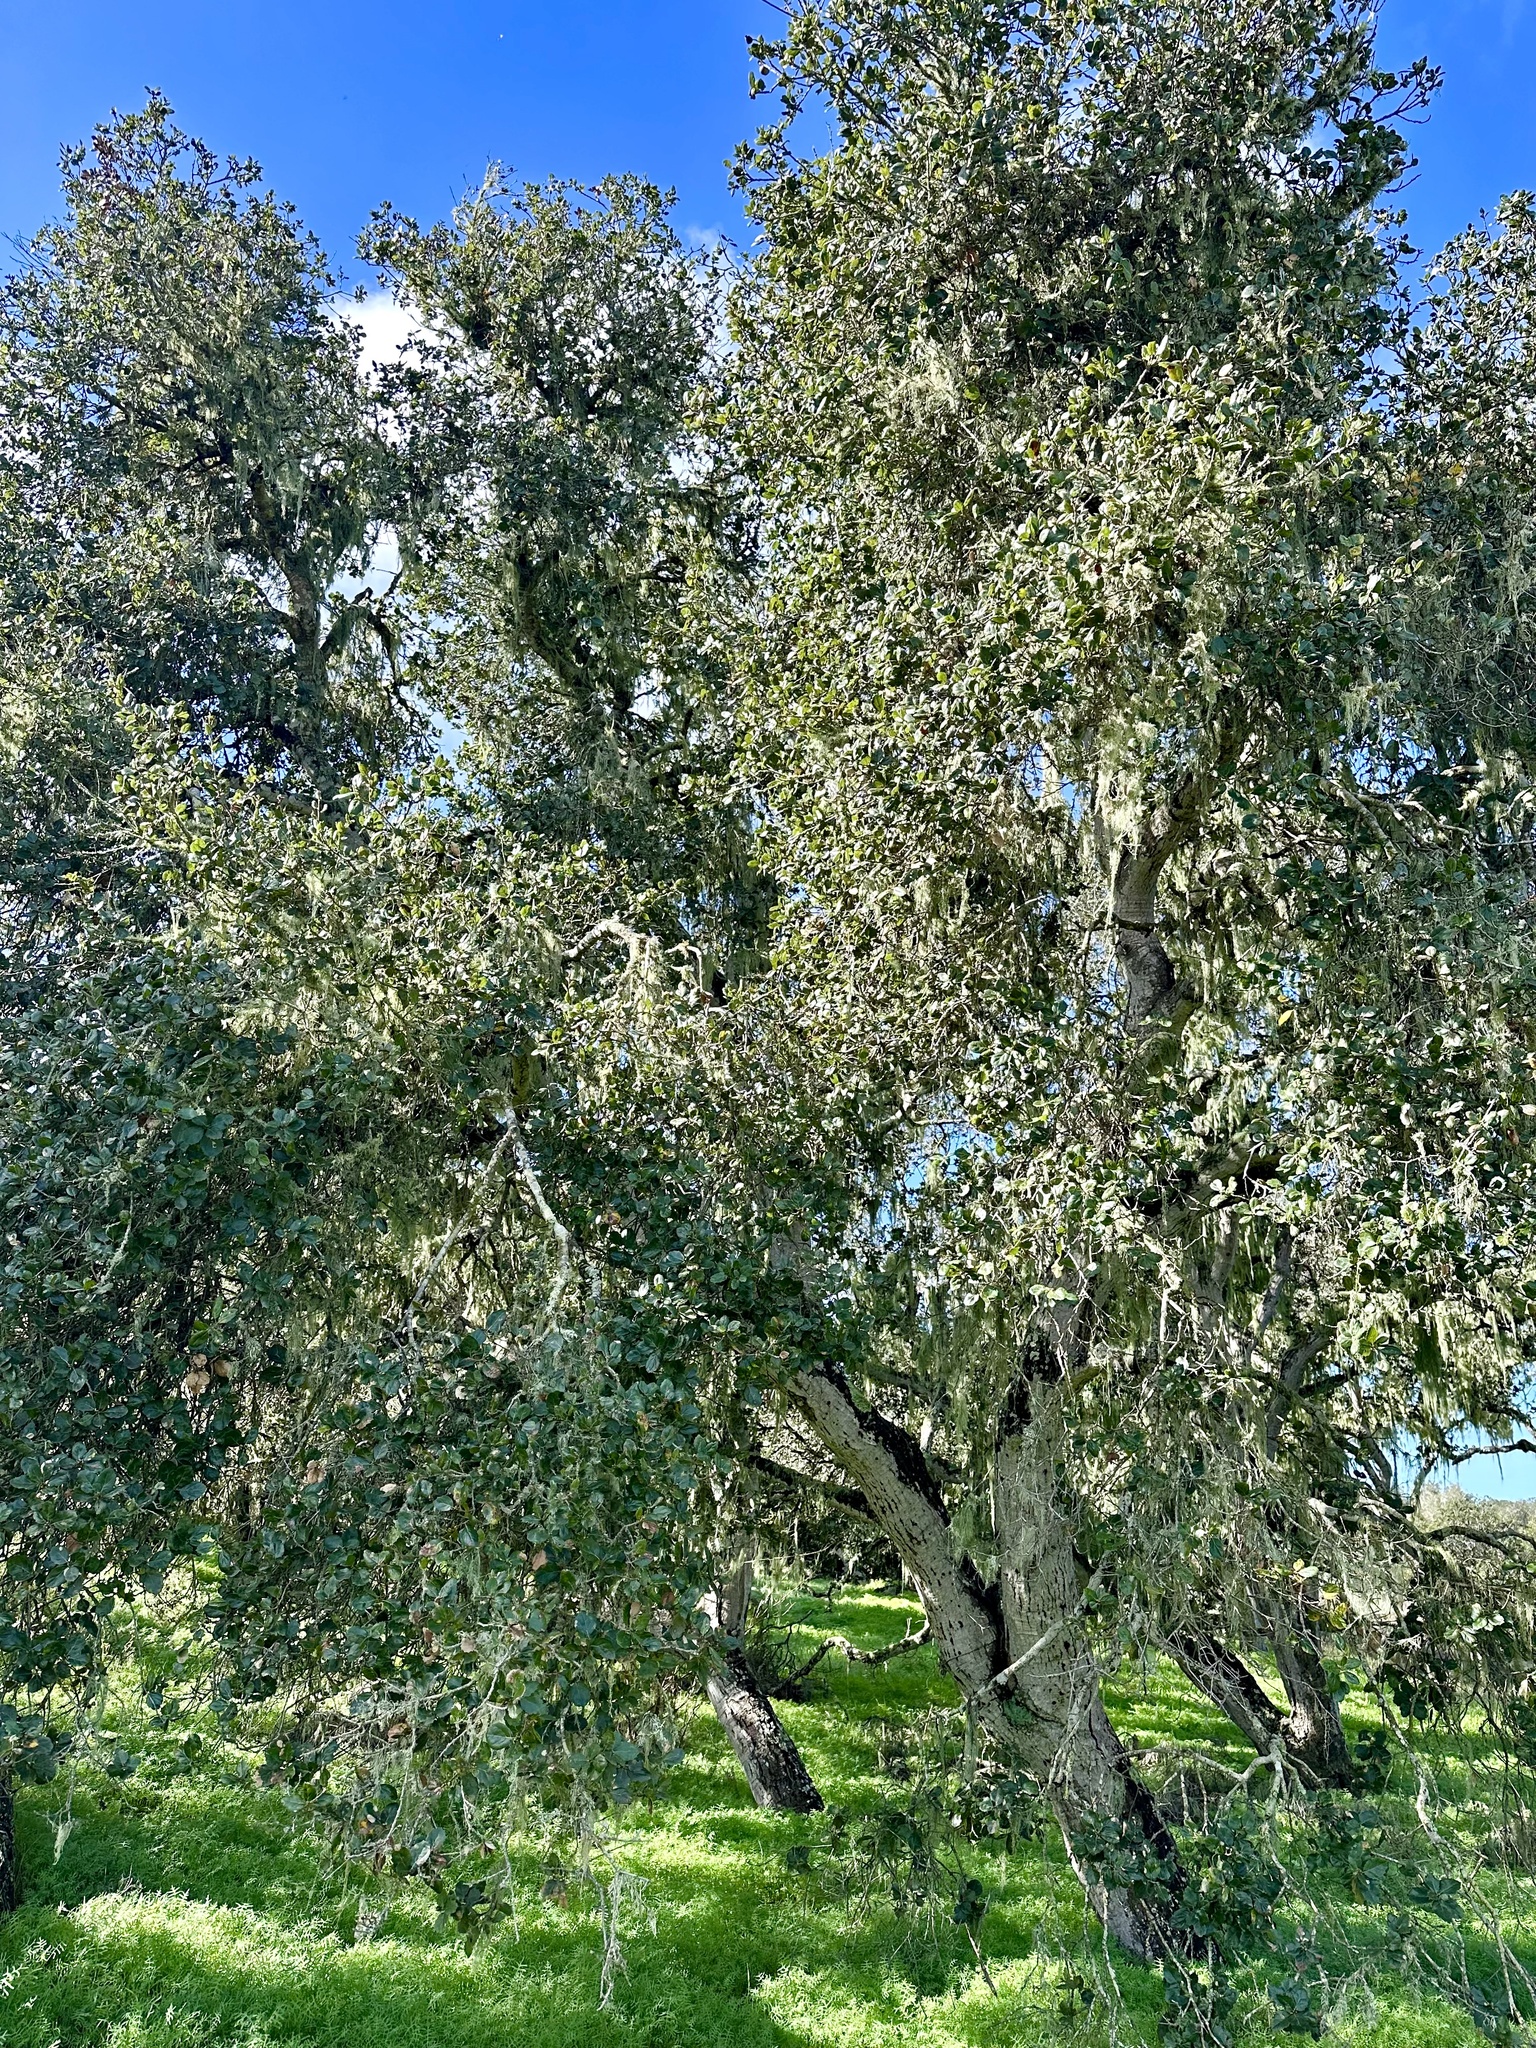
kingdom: Plantae
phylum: Tracheophyta
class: Magnoliopsida
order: Fagales
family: Fagaceae
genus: Quercus
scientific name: Quercus agrifolia
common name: California live oak
